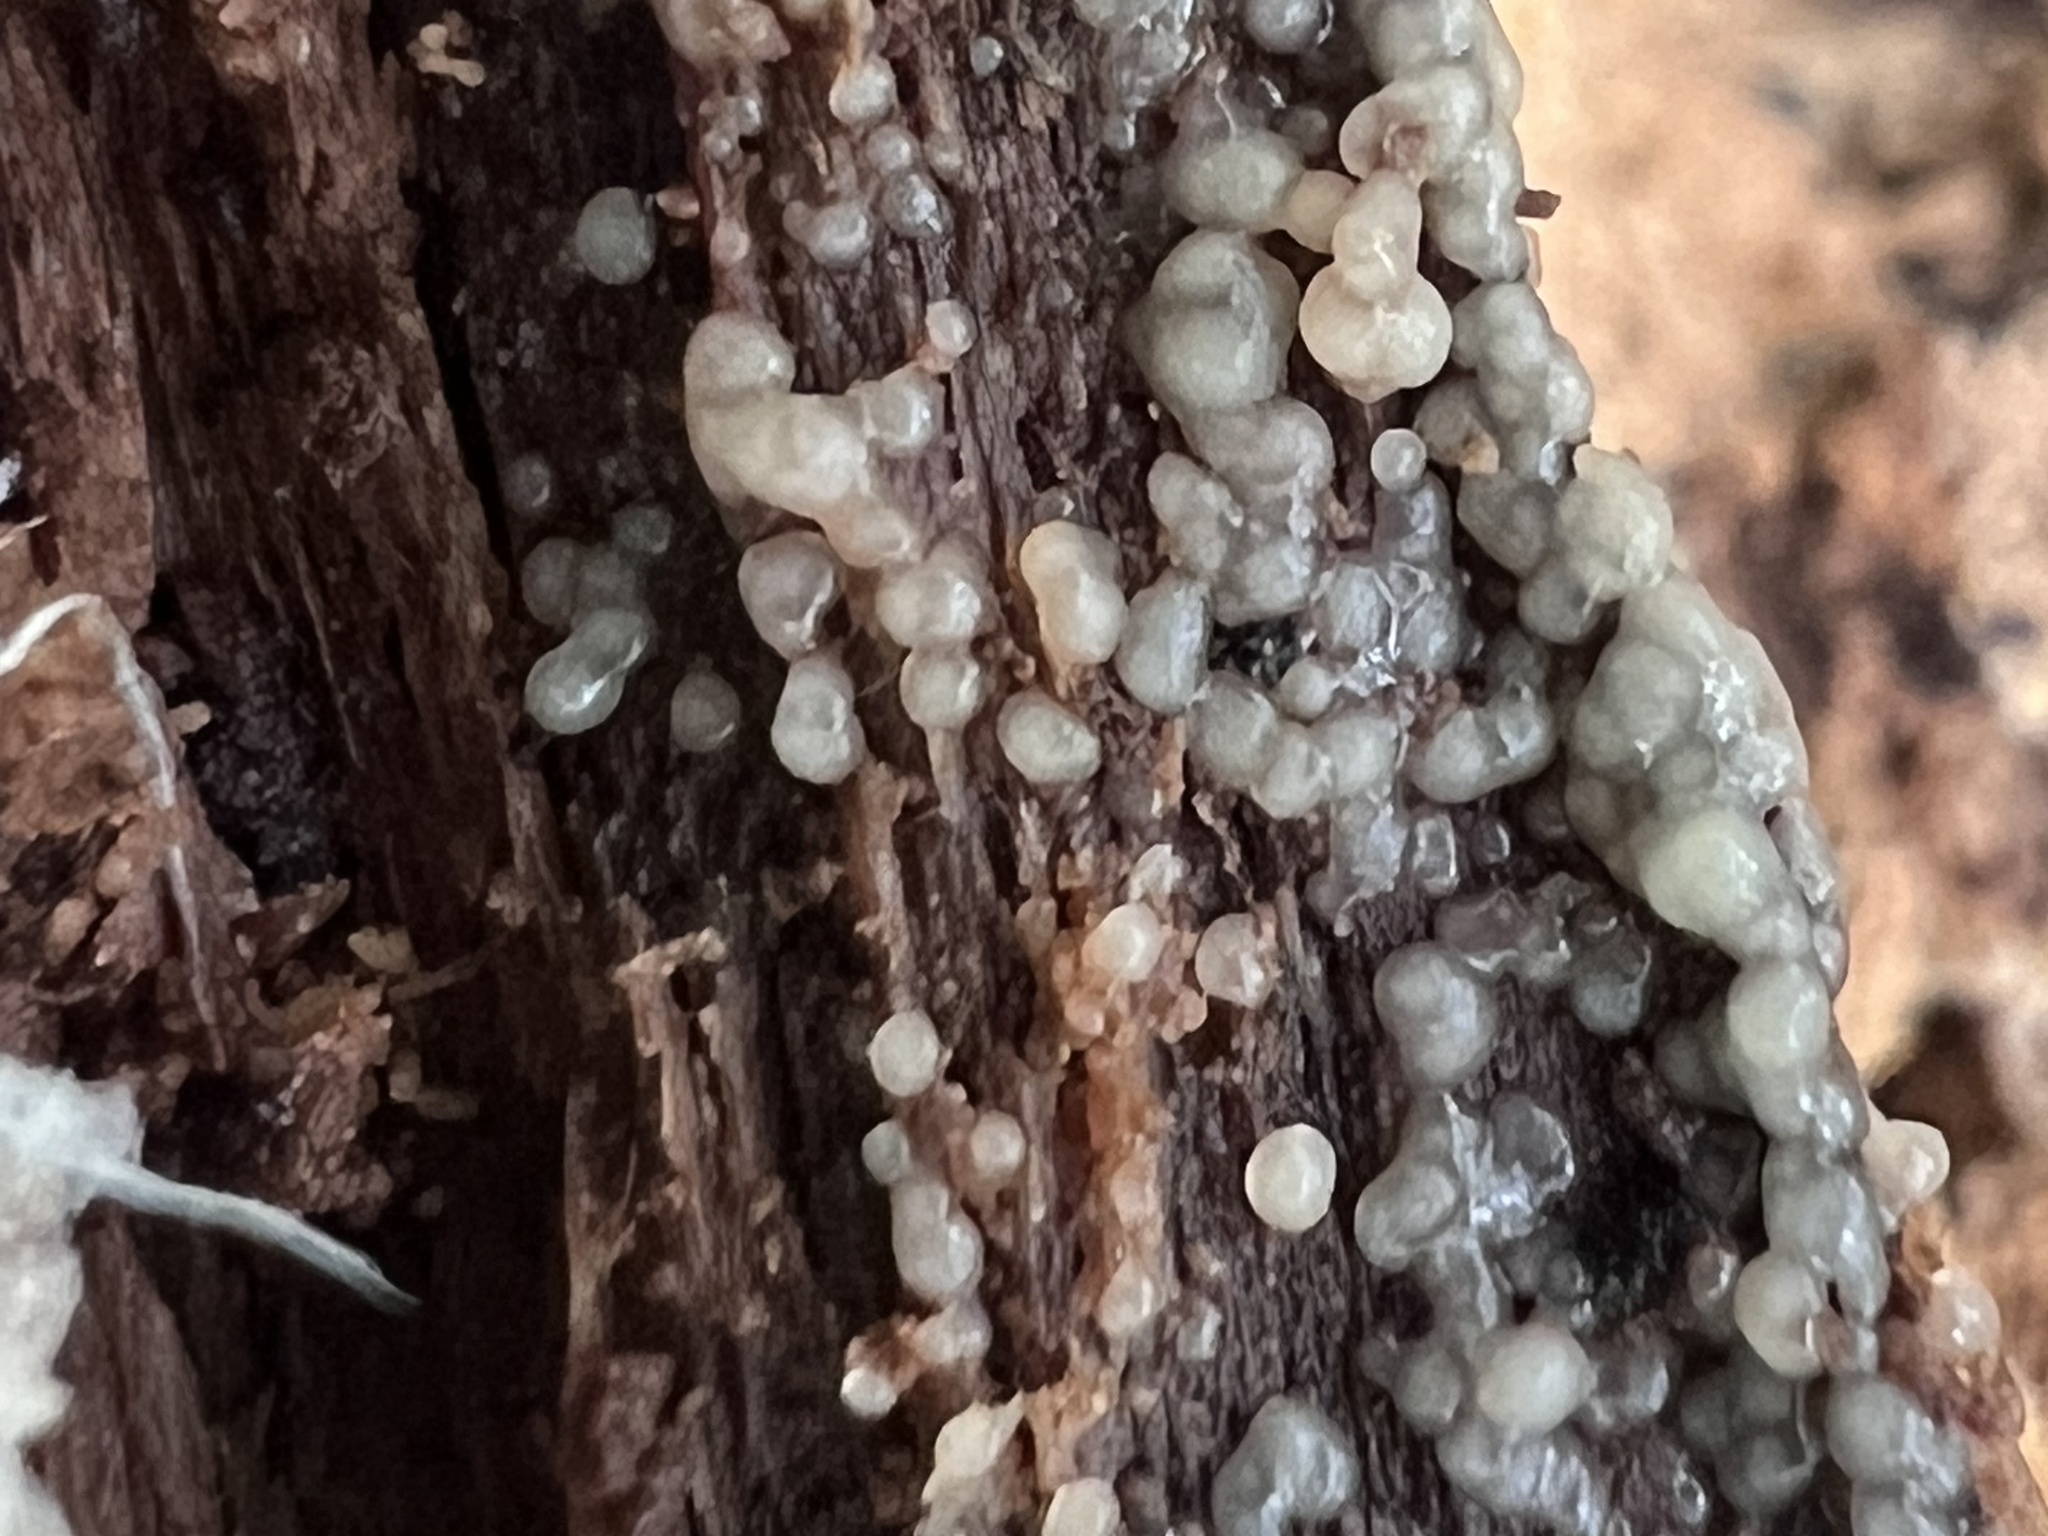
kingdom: Fungi
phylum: Basidiomycota
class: Atractiellomycetes
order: Atractiellales
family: Phleogenaceae
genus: Helicogloea
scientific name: Helicogloea compressa
